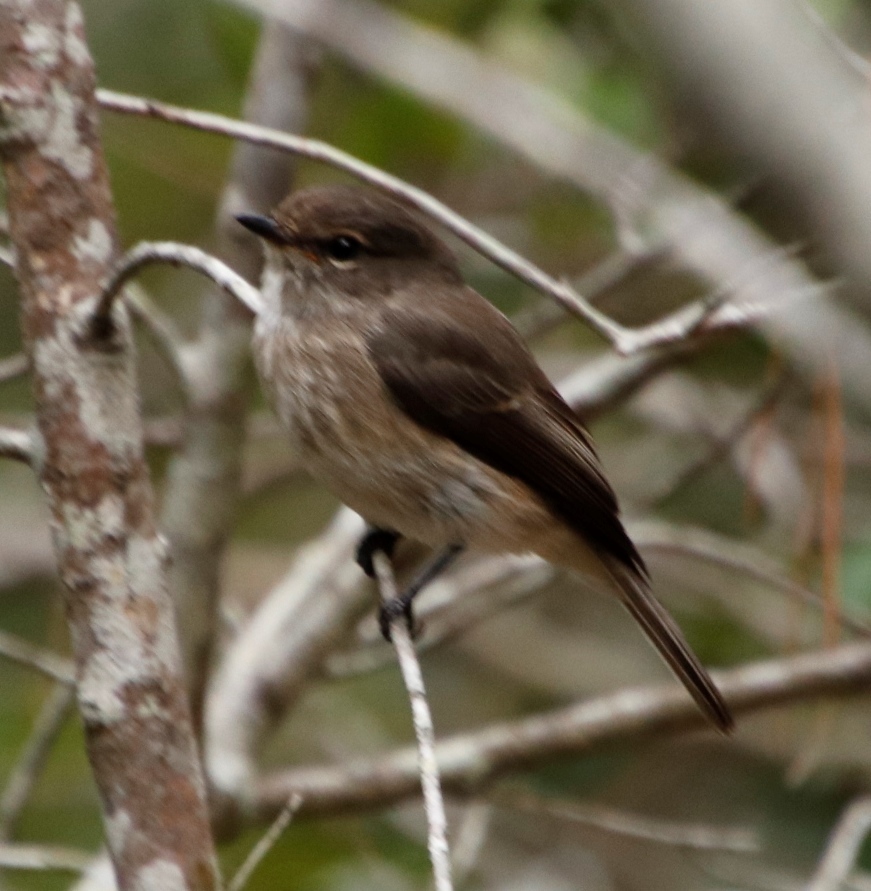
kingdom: Animalia
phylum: Chordata
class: Aves
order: Passeriformes
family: Muscicapidae
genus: Muscicapa
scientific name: Muscicapa adusta
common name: African dusky flycatcher
